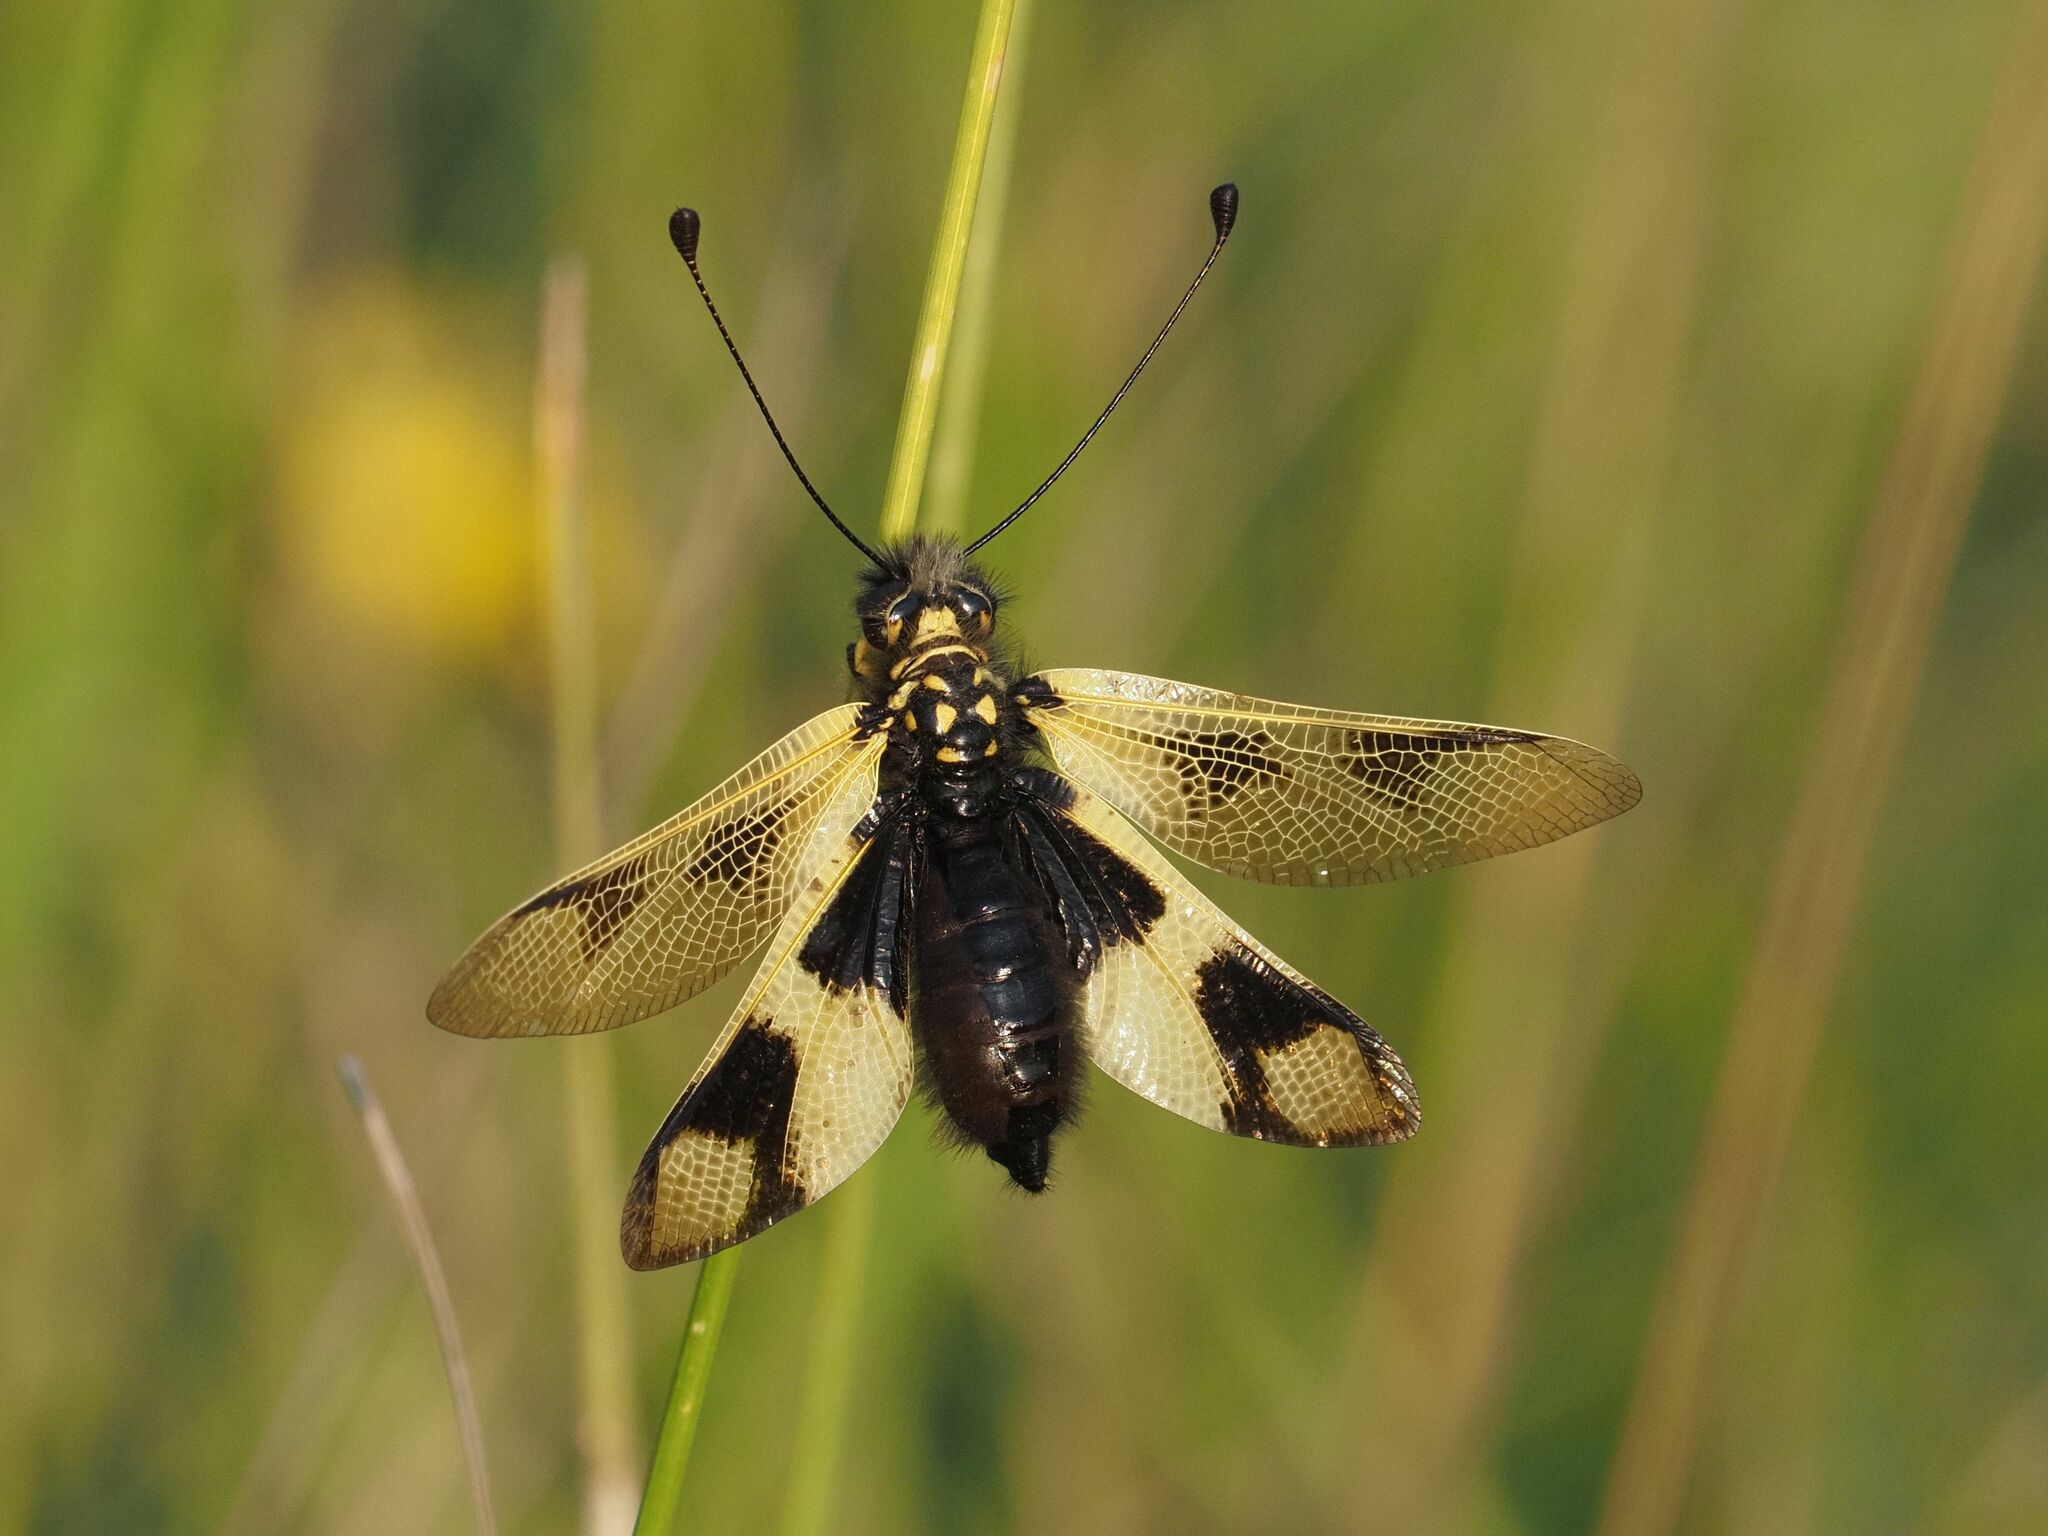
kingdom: Animalia
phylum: Arthropoda
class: Insecta
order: Neuroptera
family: Ascalaphidae
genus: Libelloides
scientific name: Libelloides macaronius
